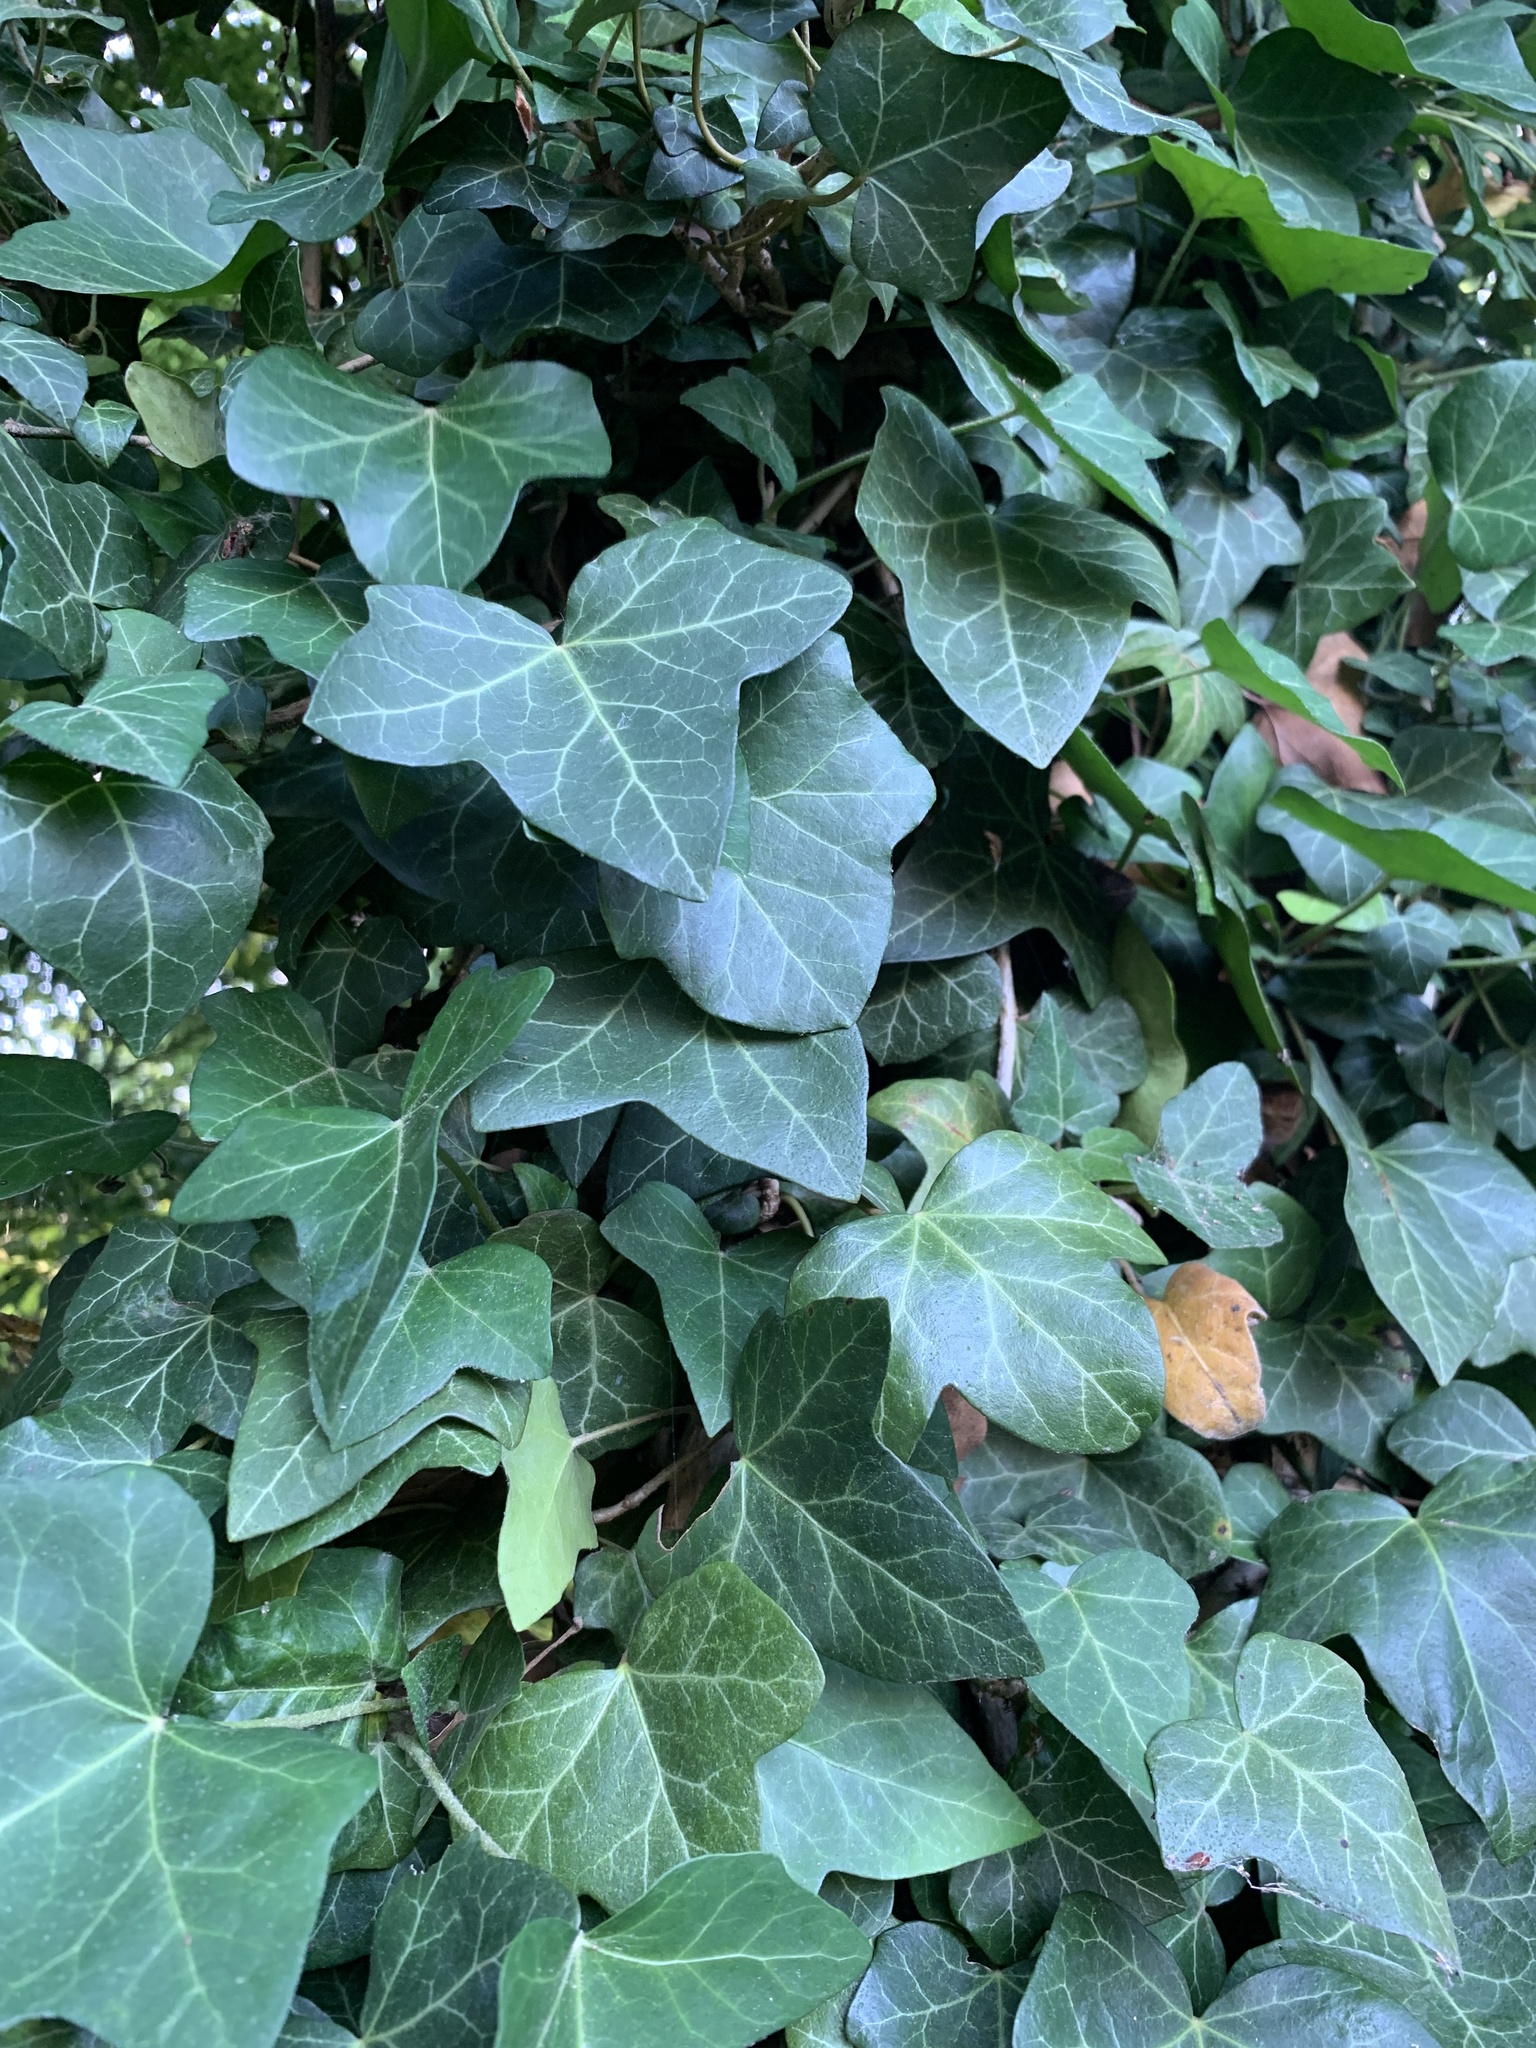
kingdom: Plantae
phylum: Tracheophyta
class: Magnoliopsida
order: Apiales
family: Araliaceae
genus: Hedera
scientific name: Hedera helix
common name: Ivy
